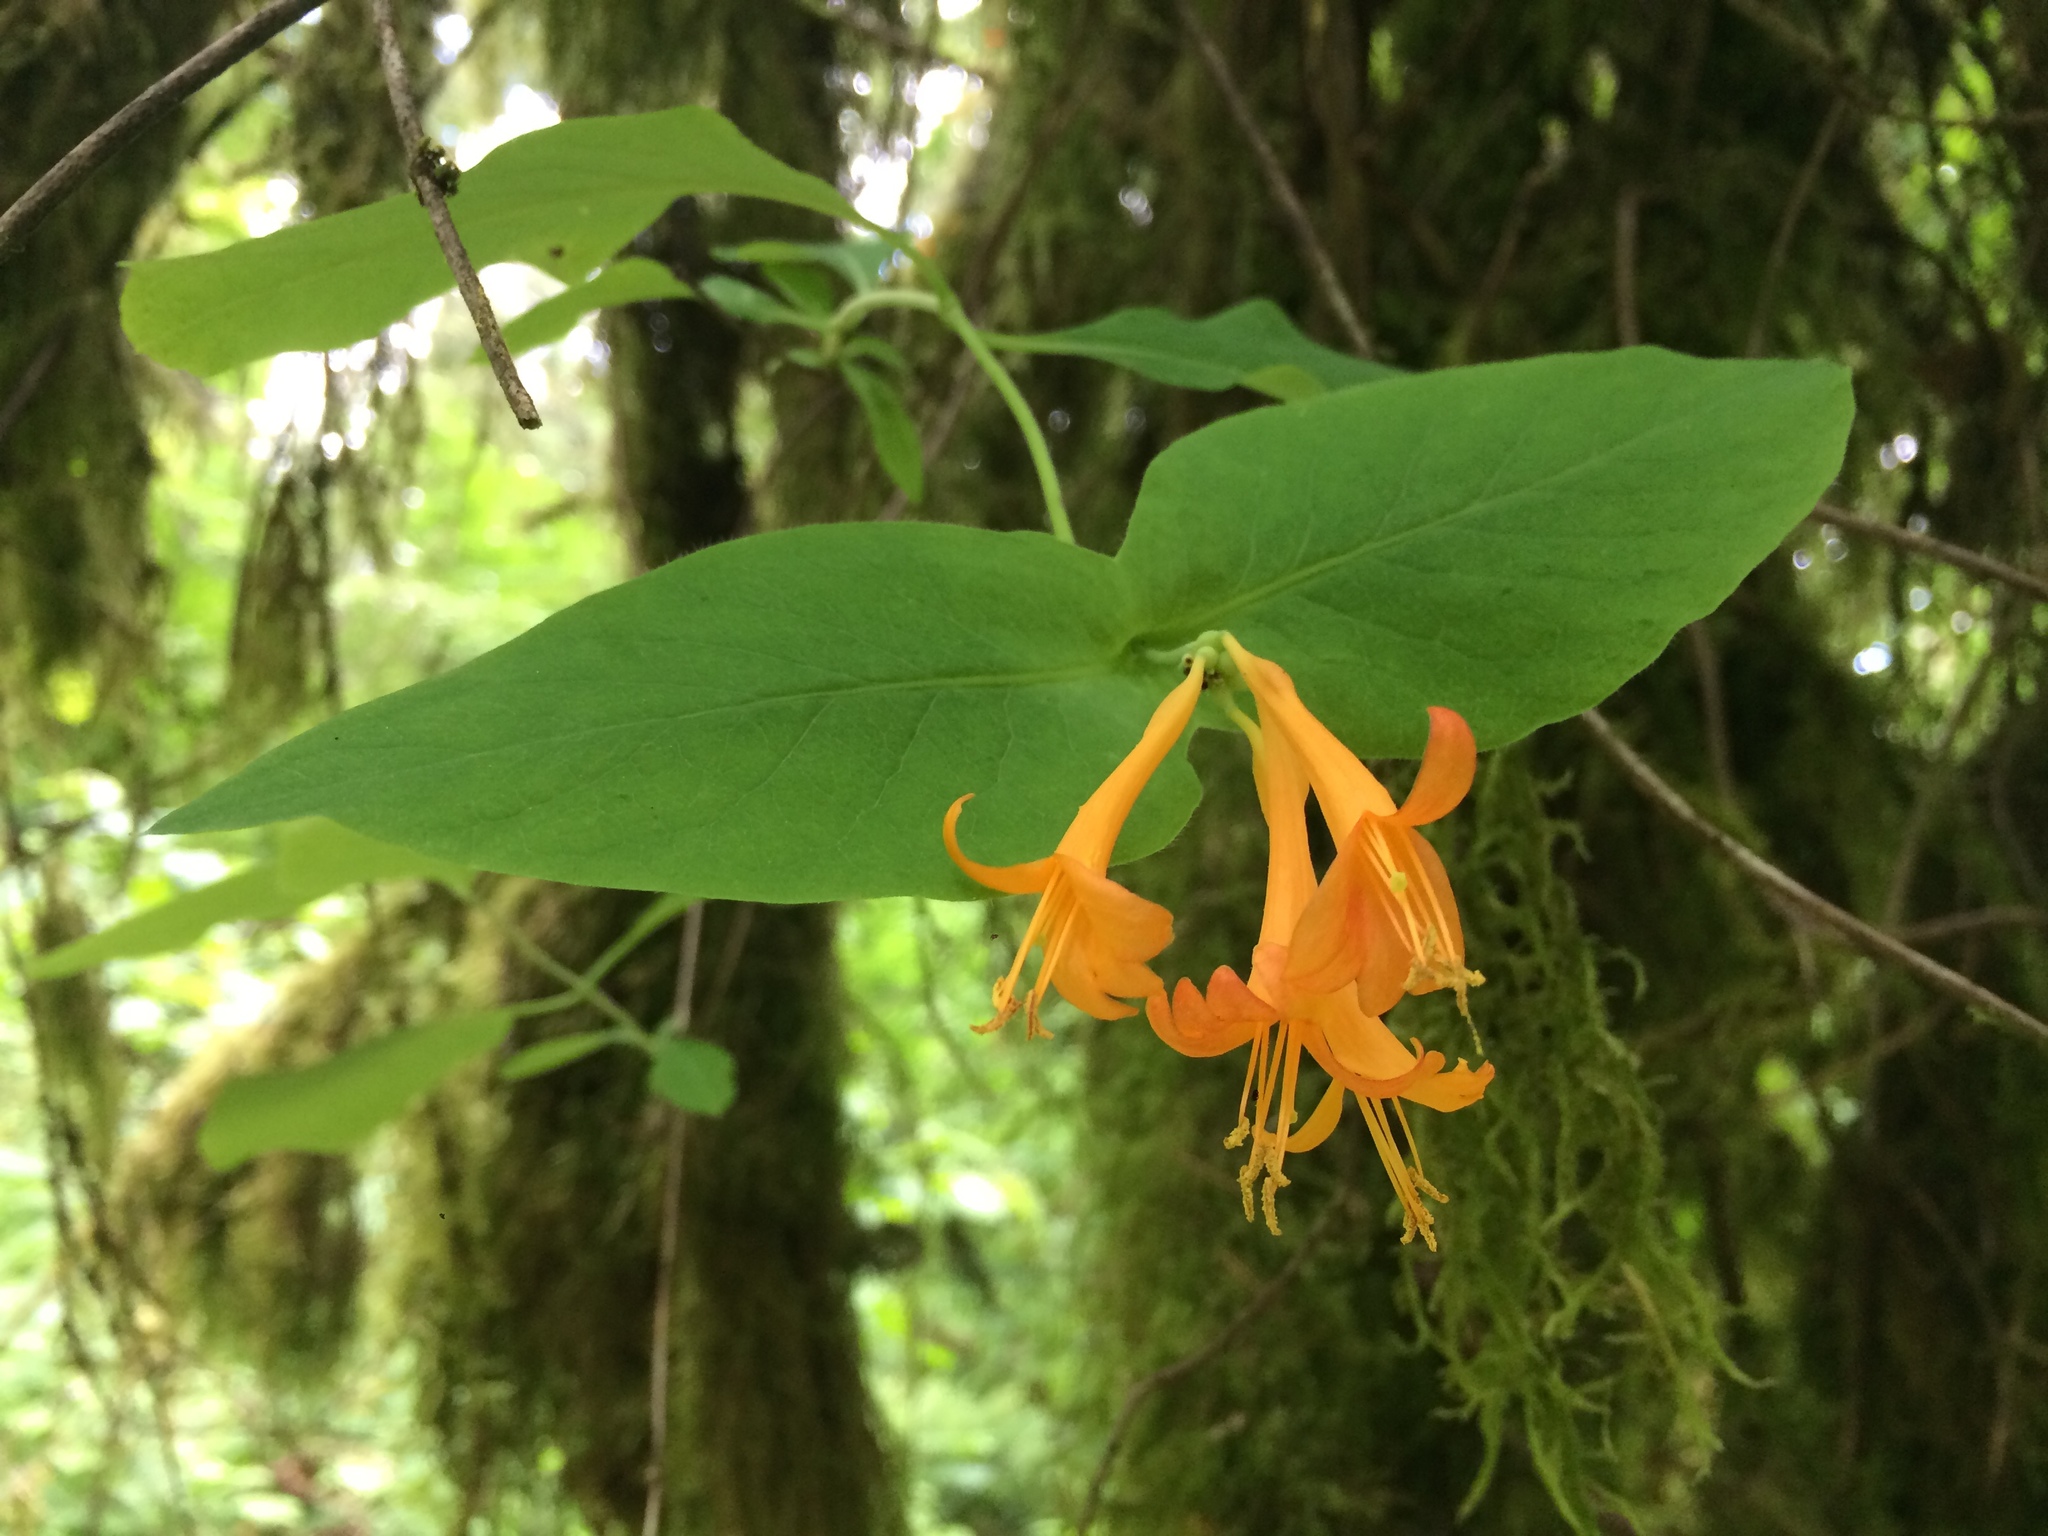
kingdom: Plantae
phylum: Tracheophyta
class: Magnoliopsida
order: Dipsacales
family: Caprifoliaceae
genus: Lonicera
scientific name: Lonicera ciliosa
